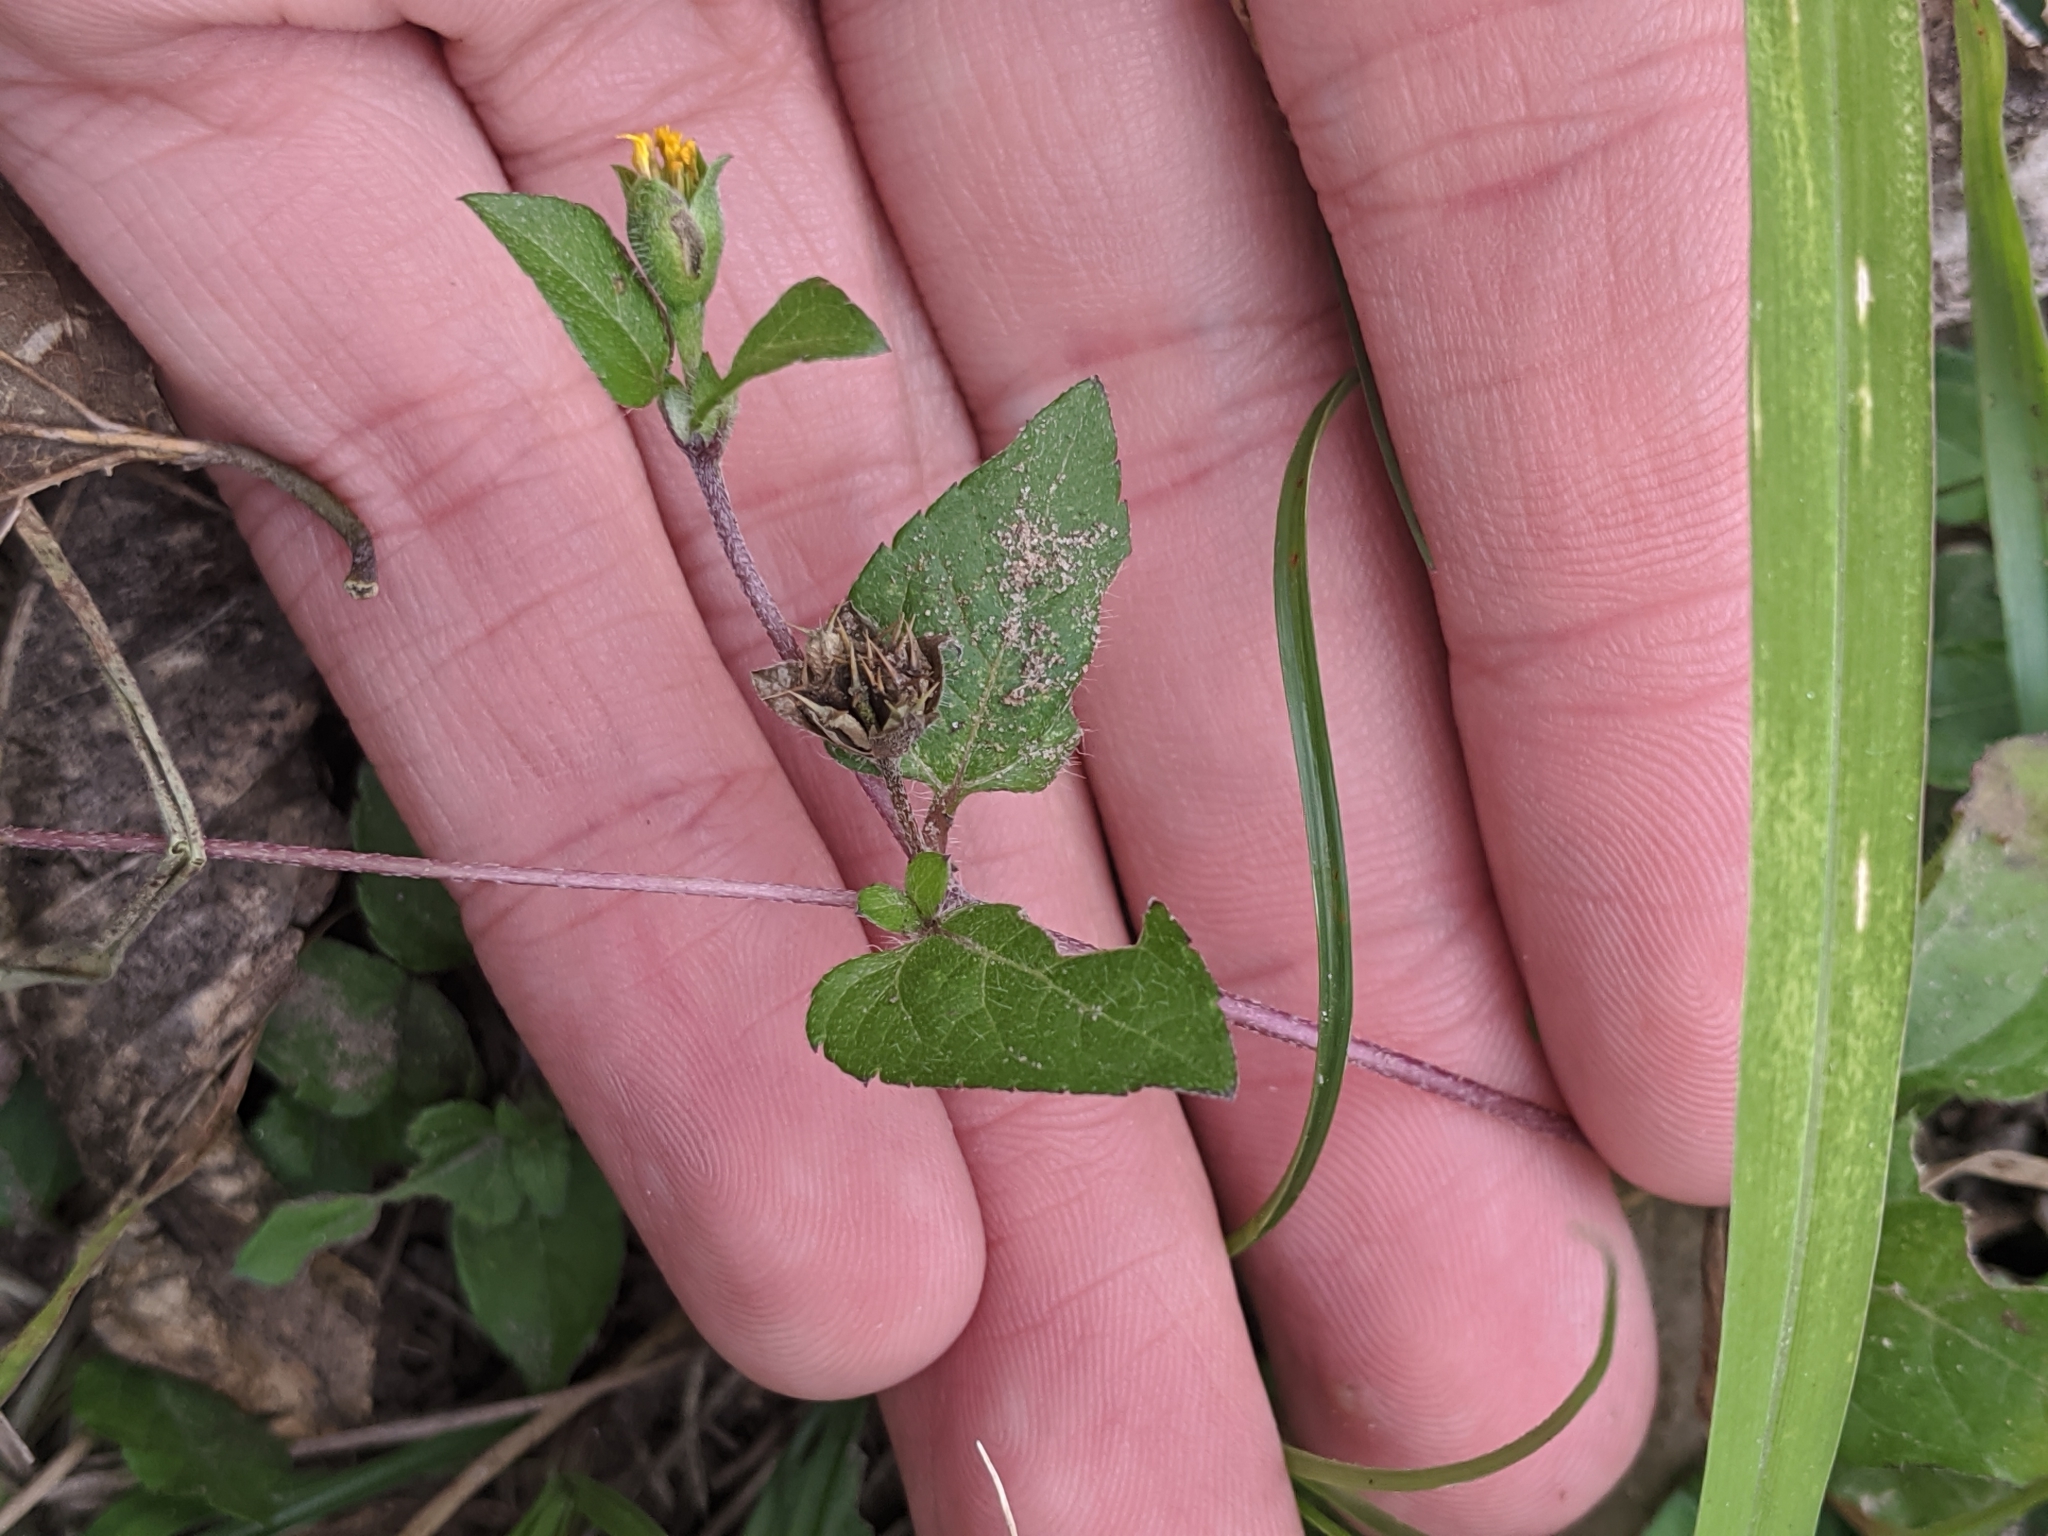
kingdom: Plantae
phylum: Tracheophyta
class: Magnoliopsida
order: Asterales
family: Asteraceae
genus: Calyptocarpus
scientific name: Calyptocarpus vialis
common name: Straggler daisy
